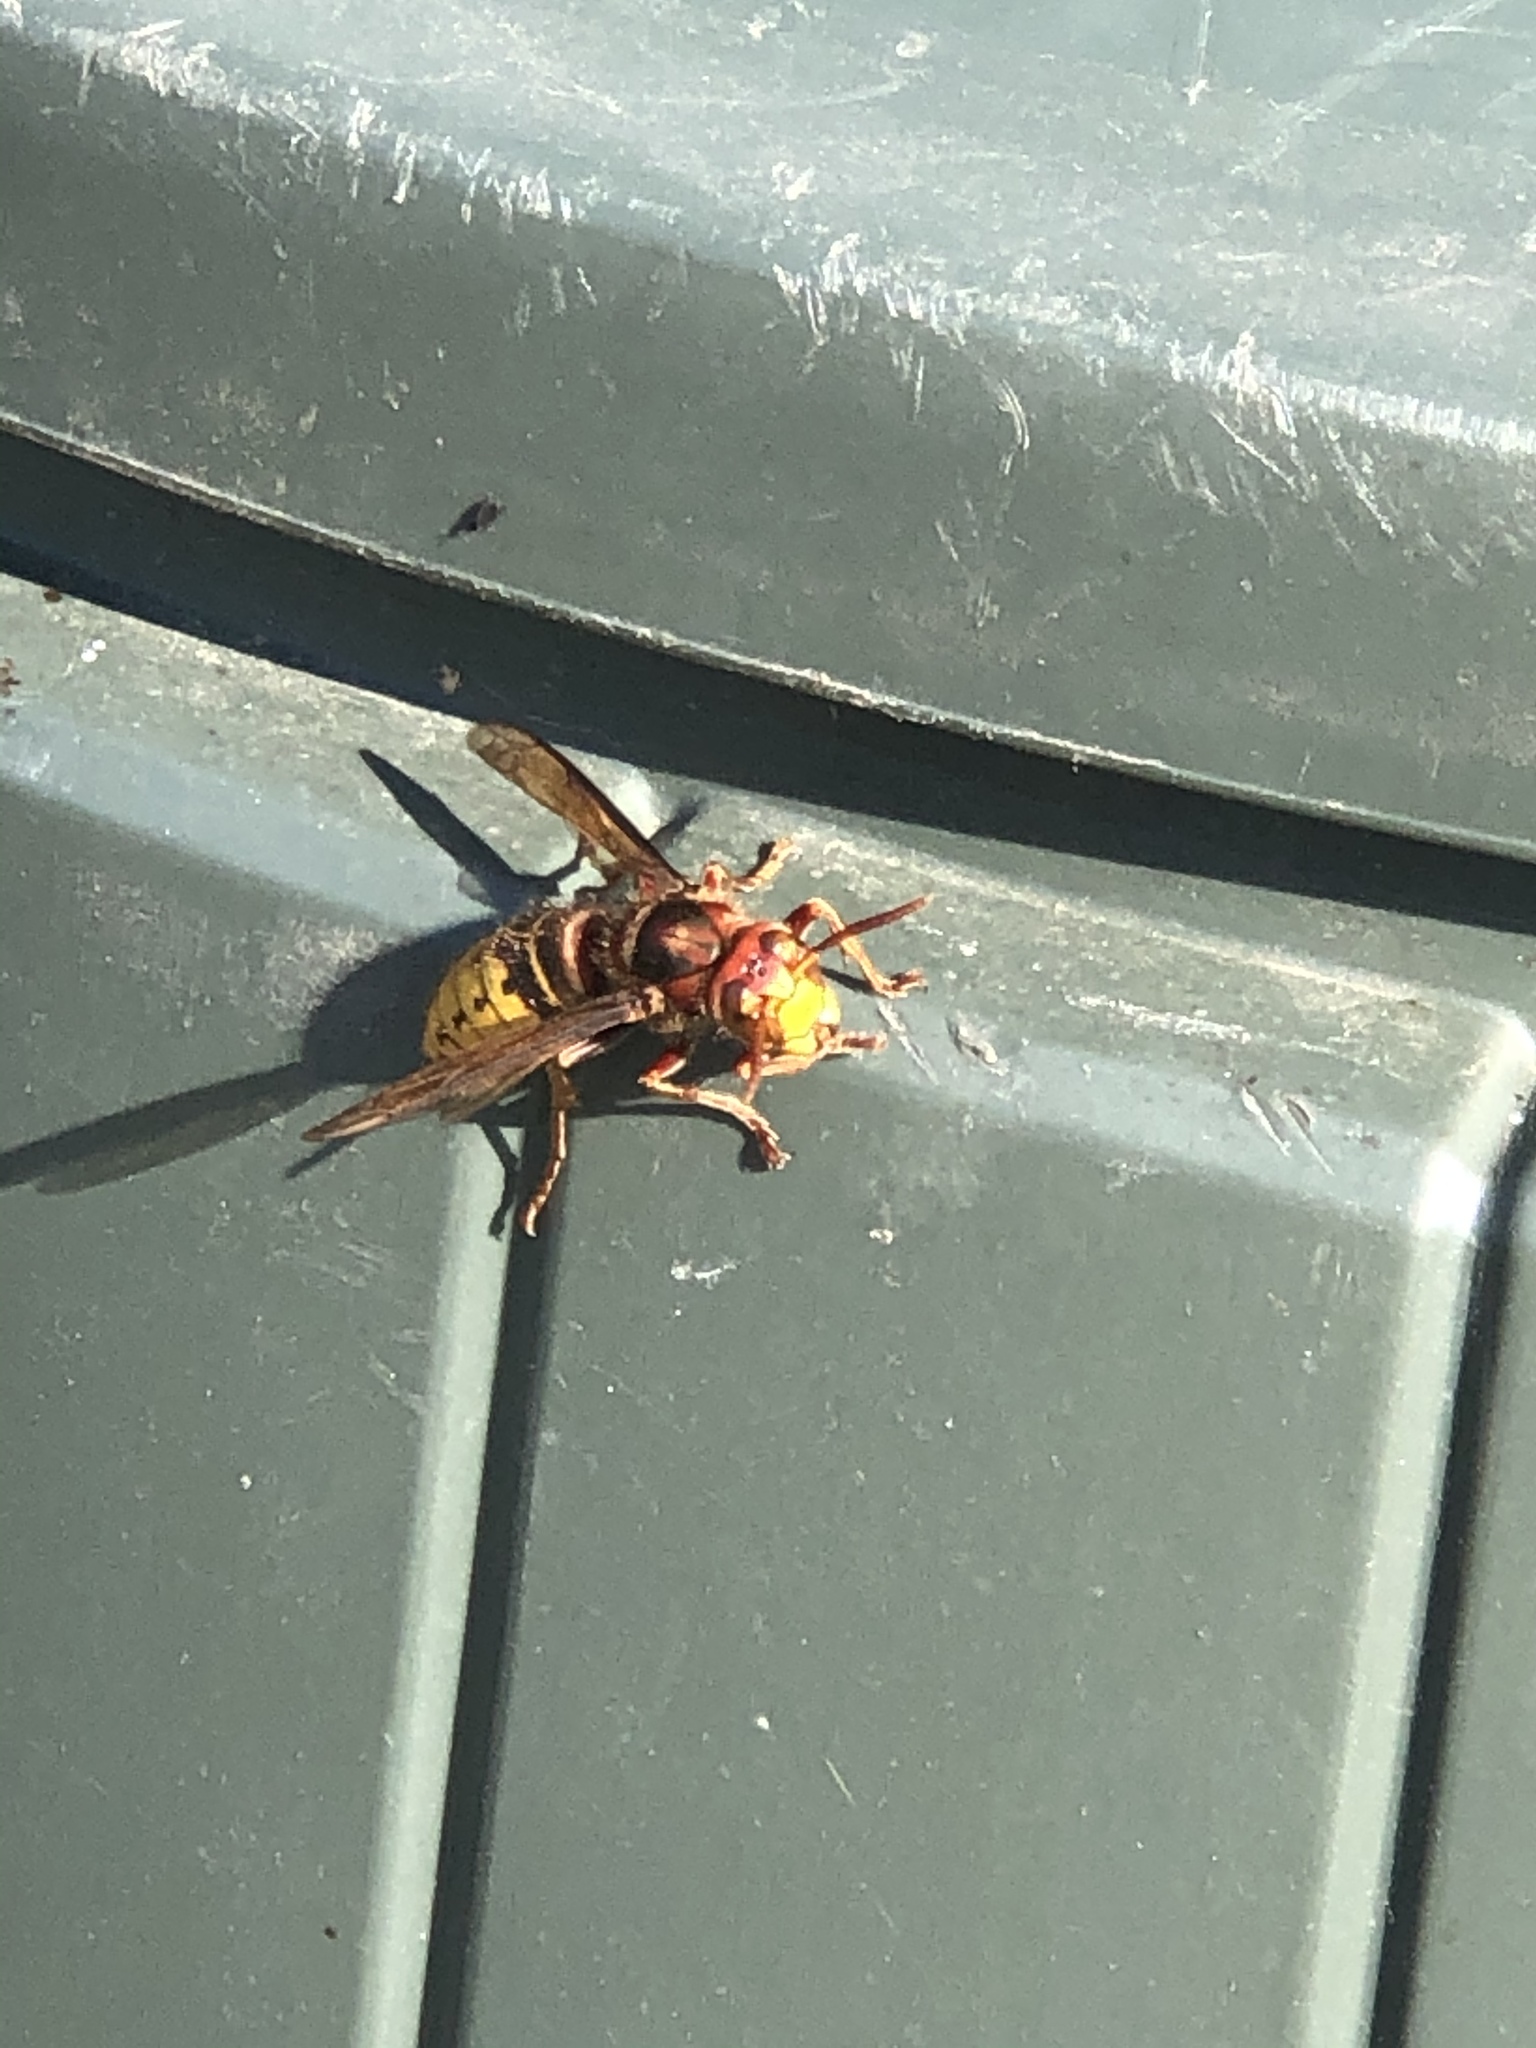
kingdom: Animalia
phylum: Arthropoda
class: Insecta
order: Hymenoptera
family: Vespidae
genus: Vespa
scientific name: Vespa crabro
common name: Hornet
